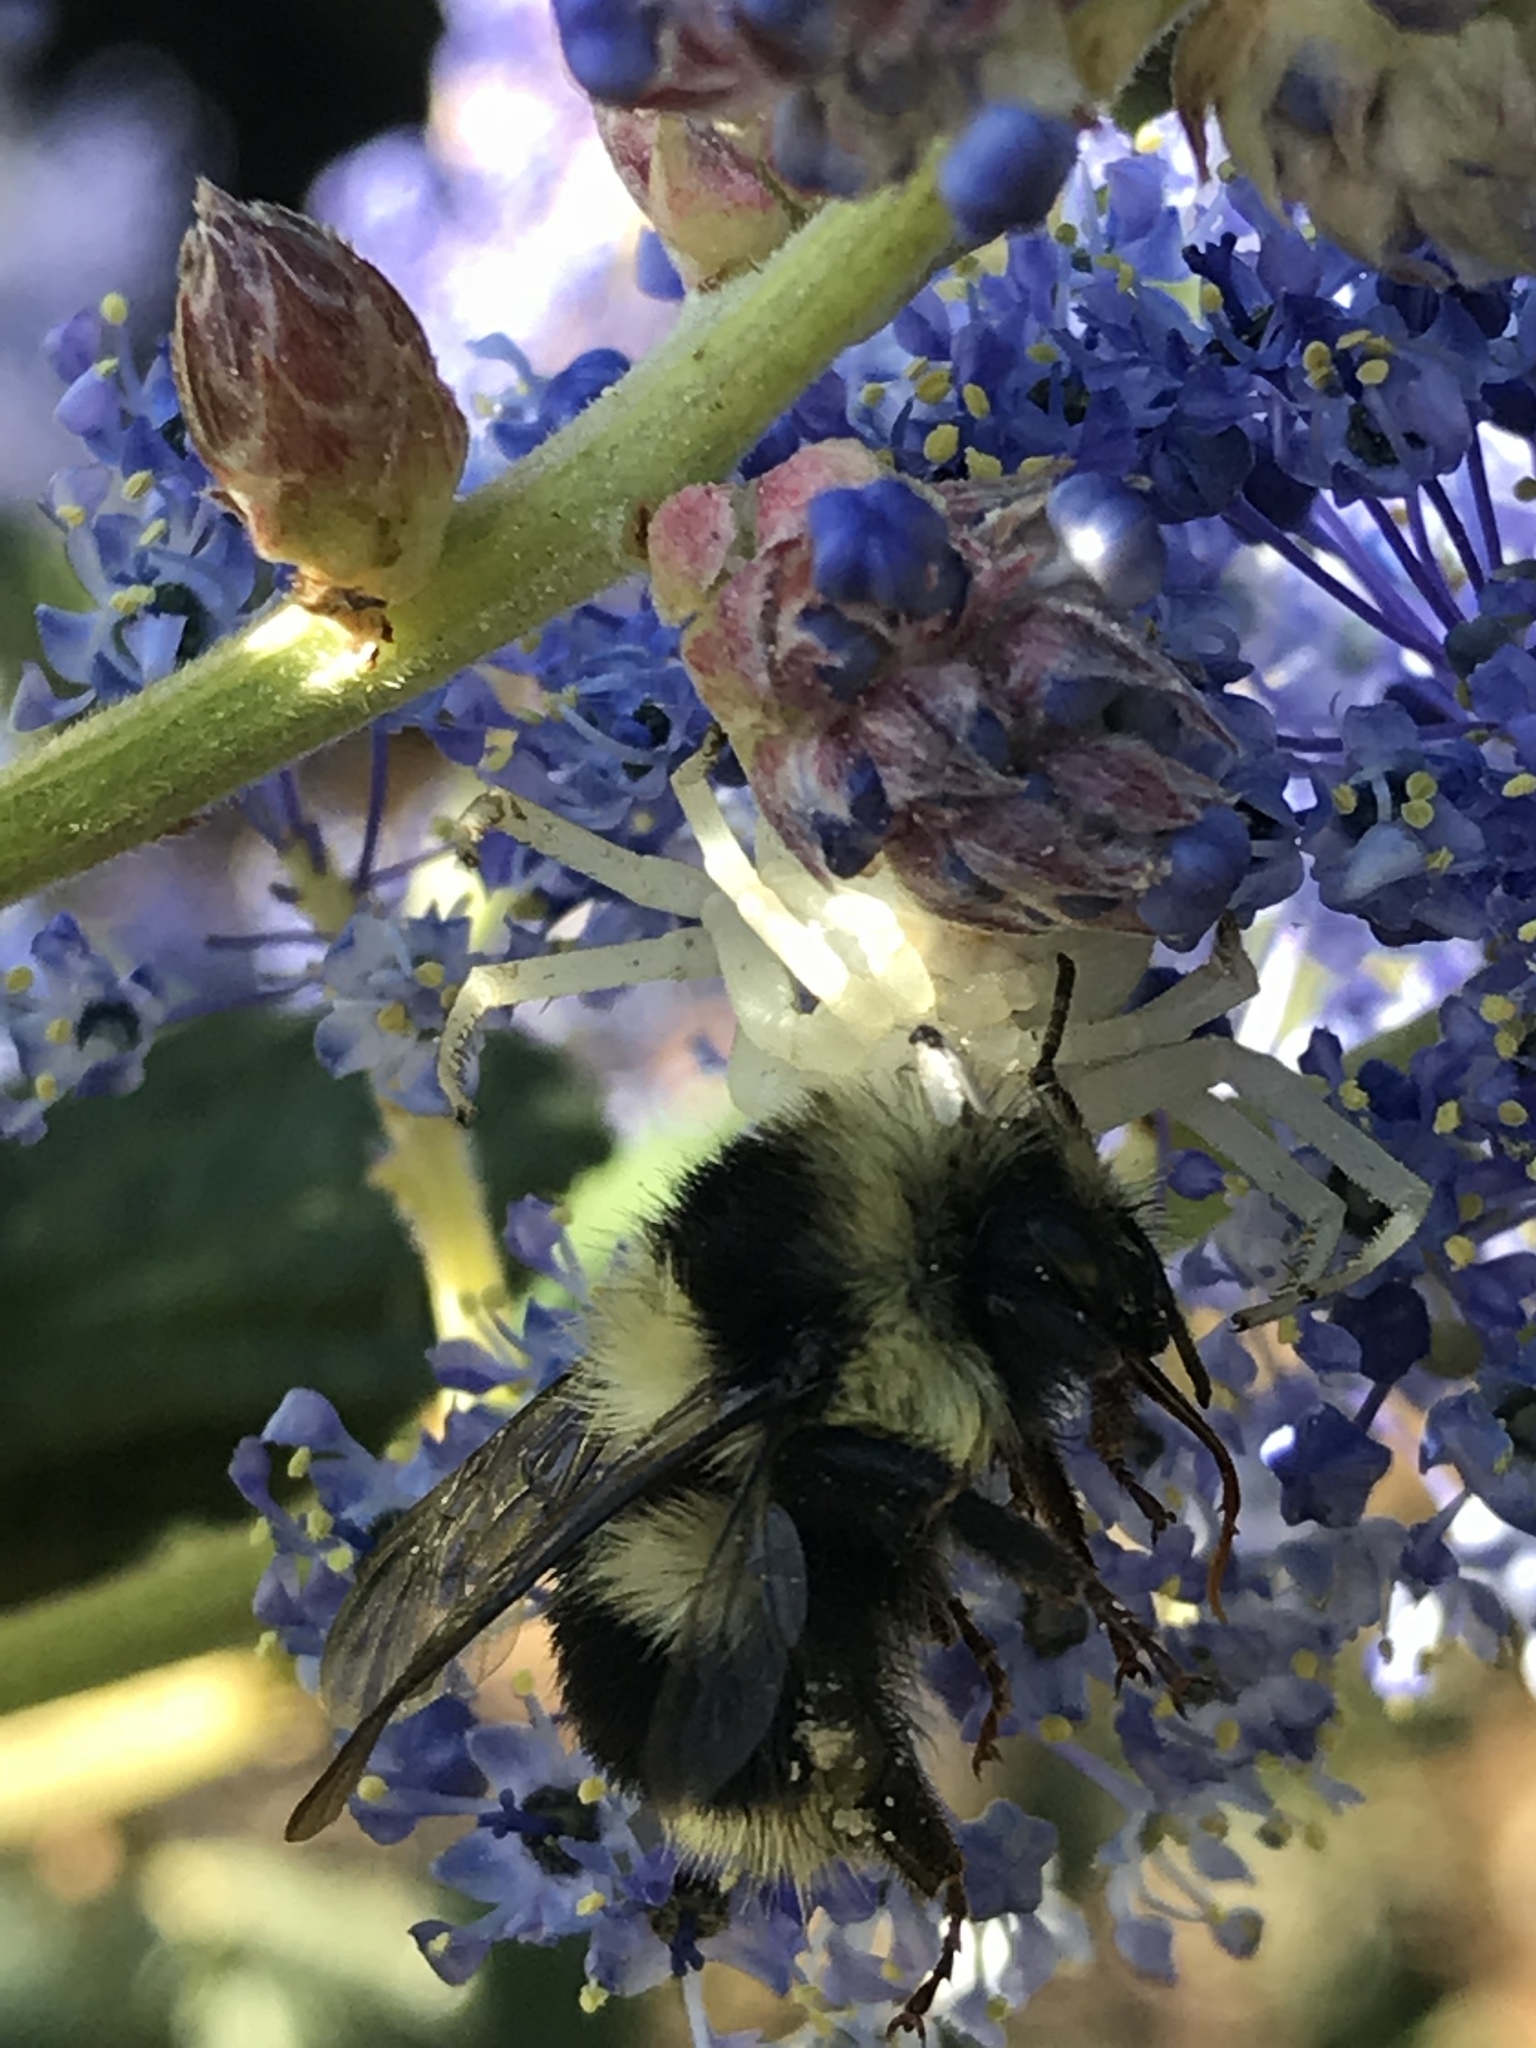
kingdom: Animalia
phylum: Arthropoda
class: Insecta
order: Hymenoptera
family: Apidae
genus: Bombus
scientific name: Bombus melanopygus
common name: Black tail bumble bee
